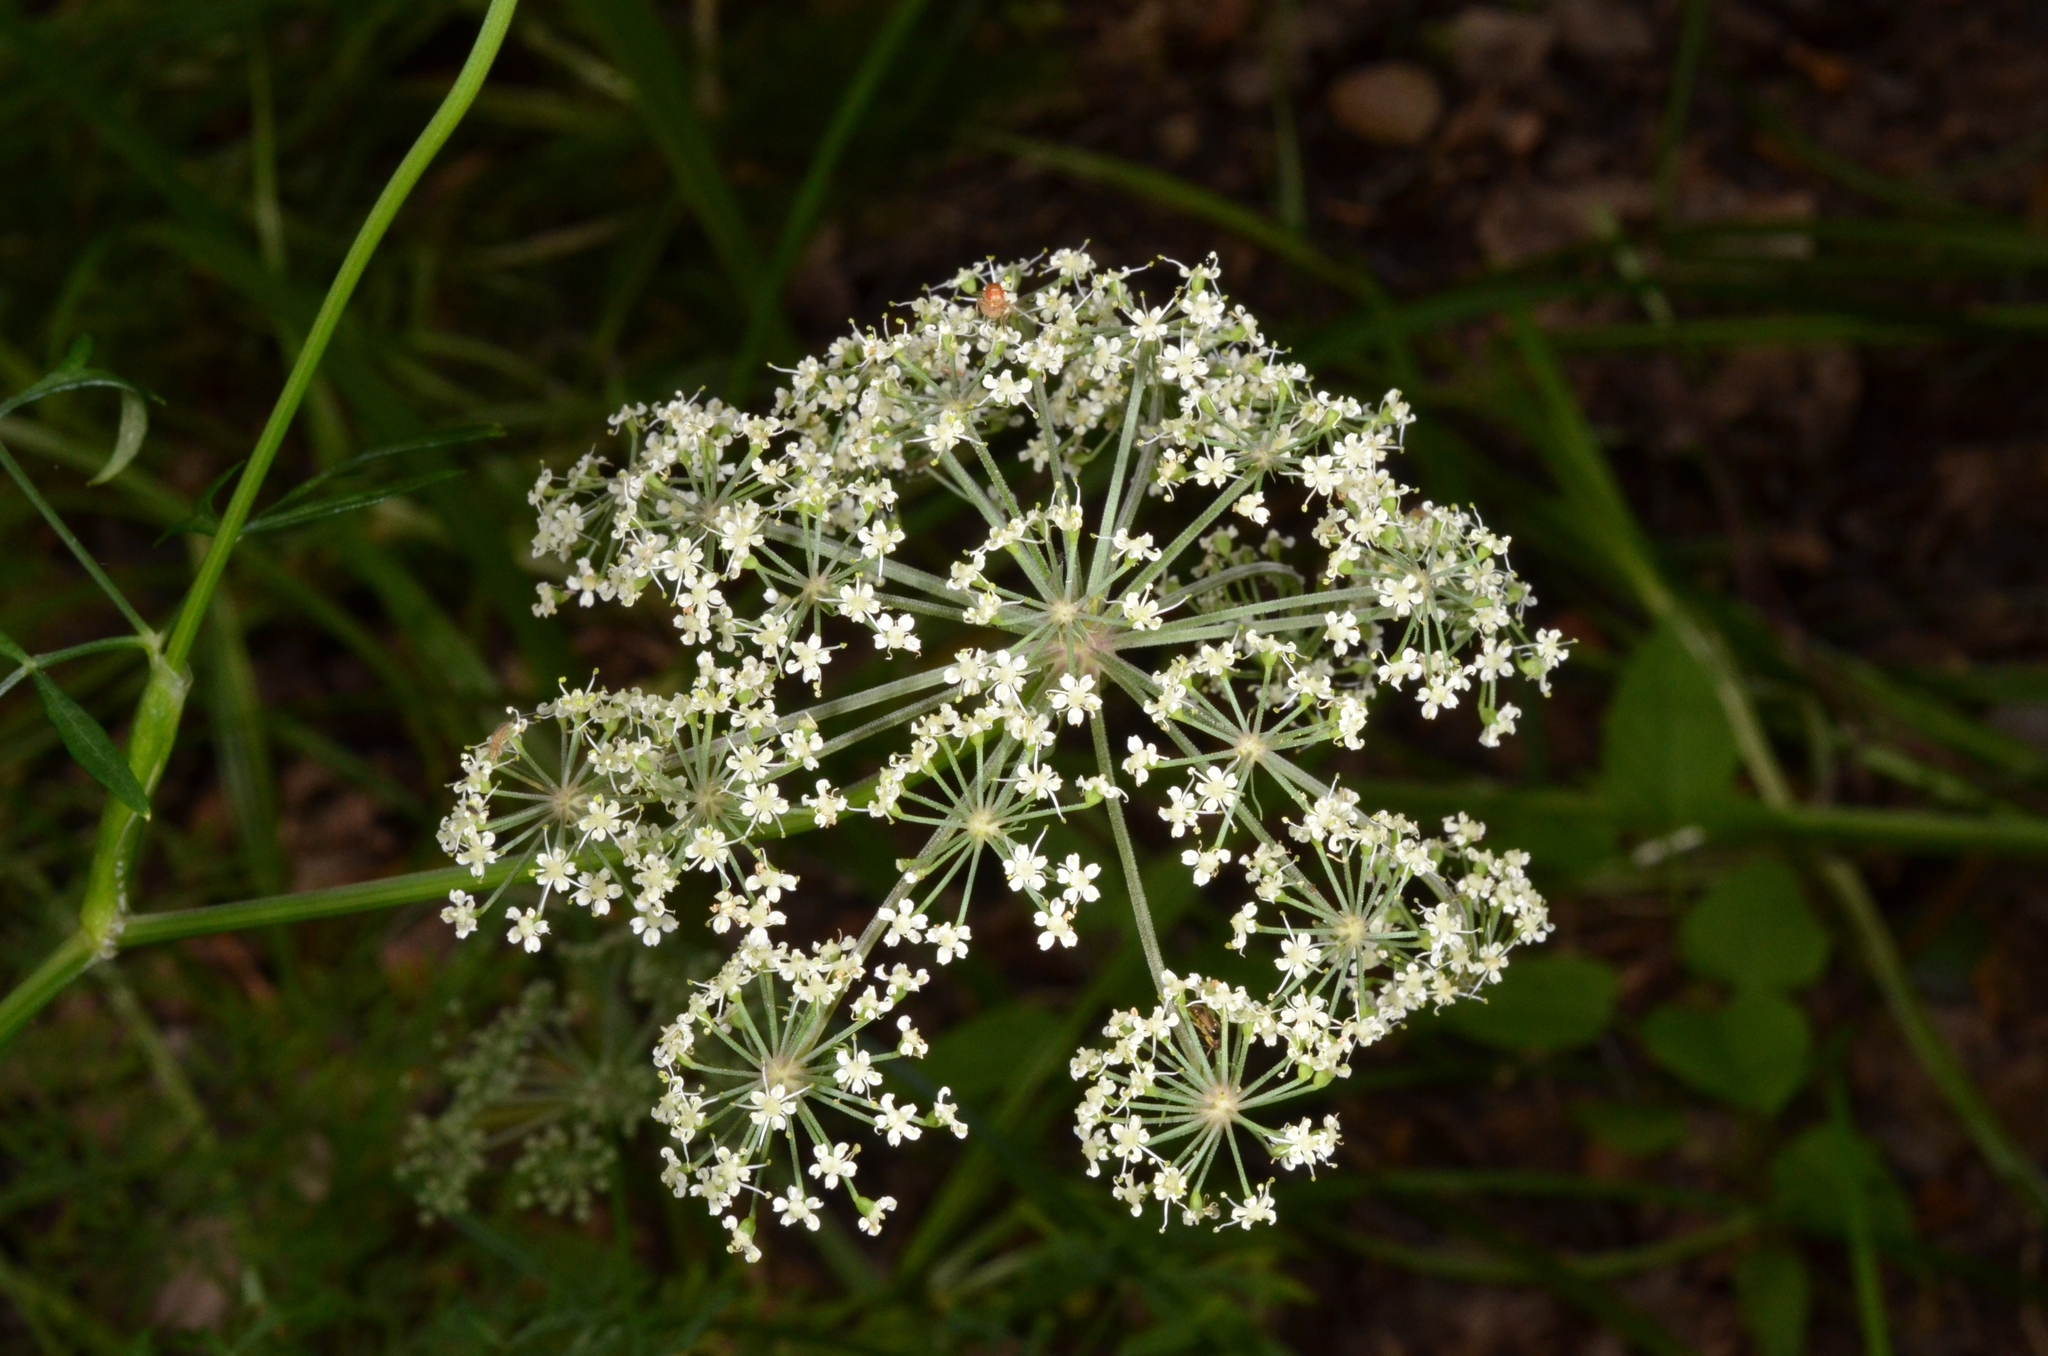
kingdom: Plantae
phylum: Tracheophyta
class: Magnoliopsida
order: Apiales
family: Apiaceae
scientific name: Apiaceae
